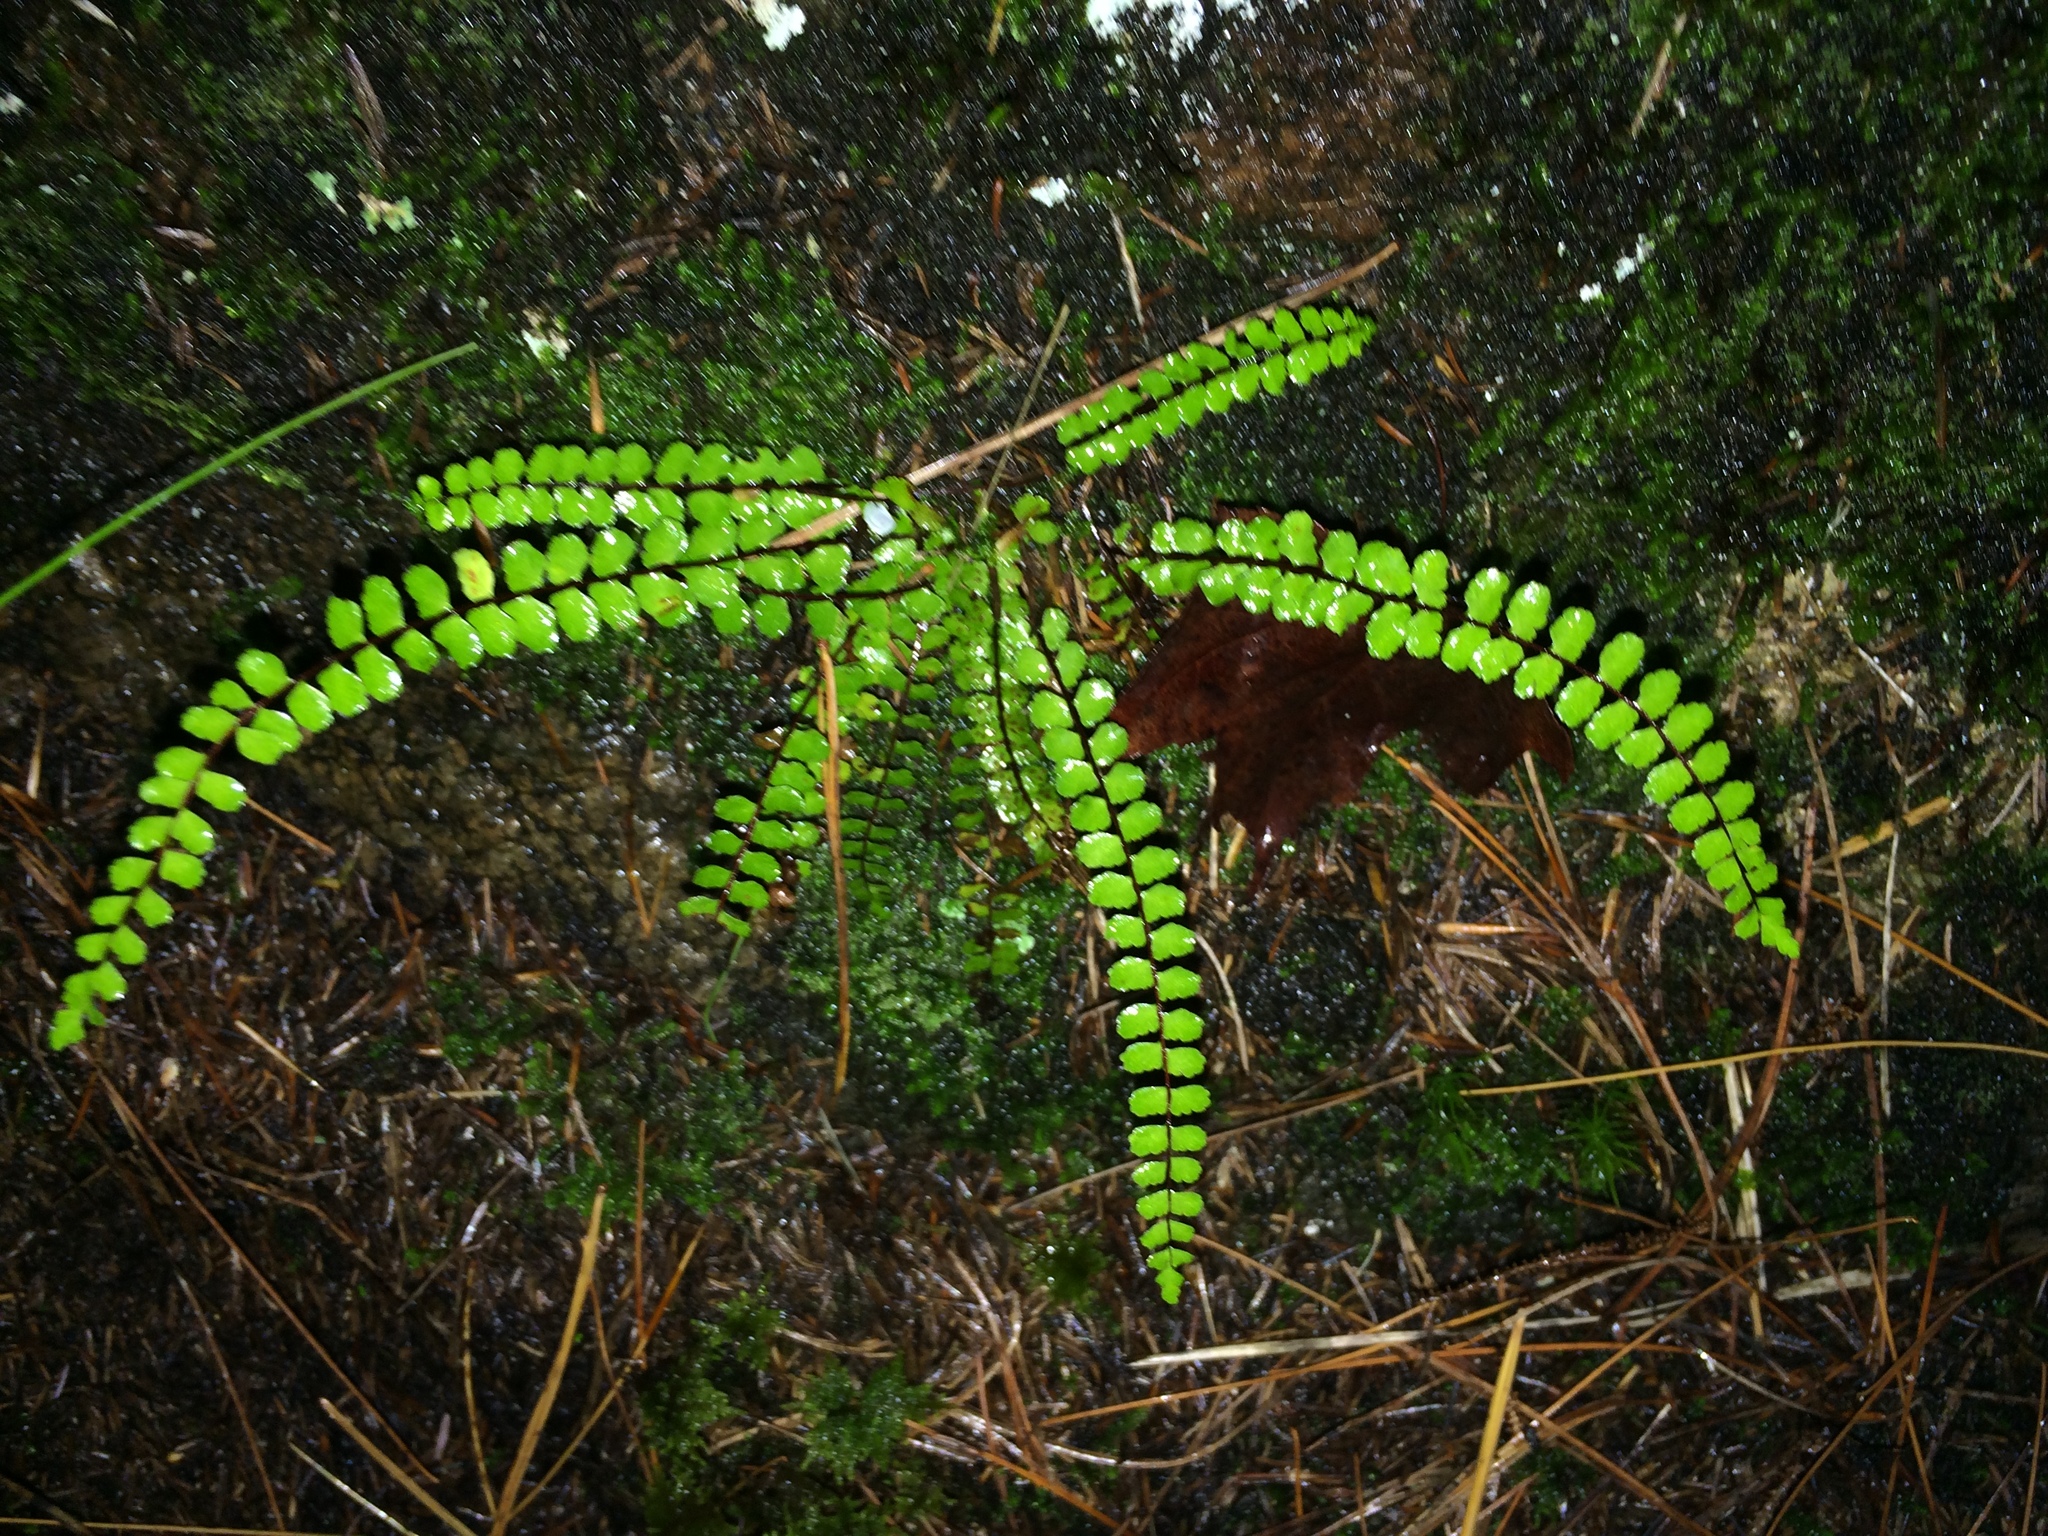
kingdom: Plantae
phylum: Tracheophyta
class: Polypodiopsida
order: Polypodiales
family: Aspleniaceae
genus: Asplenium
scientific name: Asplenium trichomanes
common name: Maidenhair spleenwort
